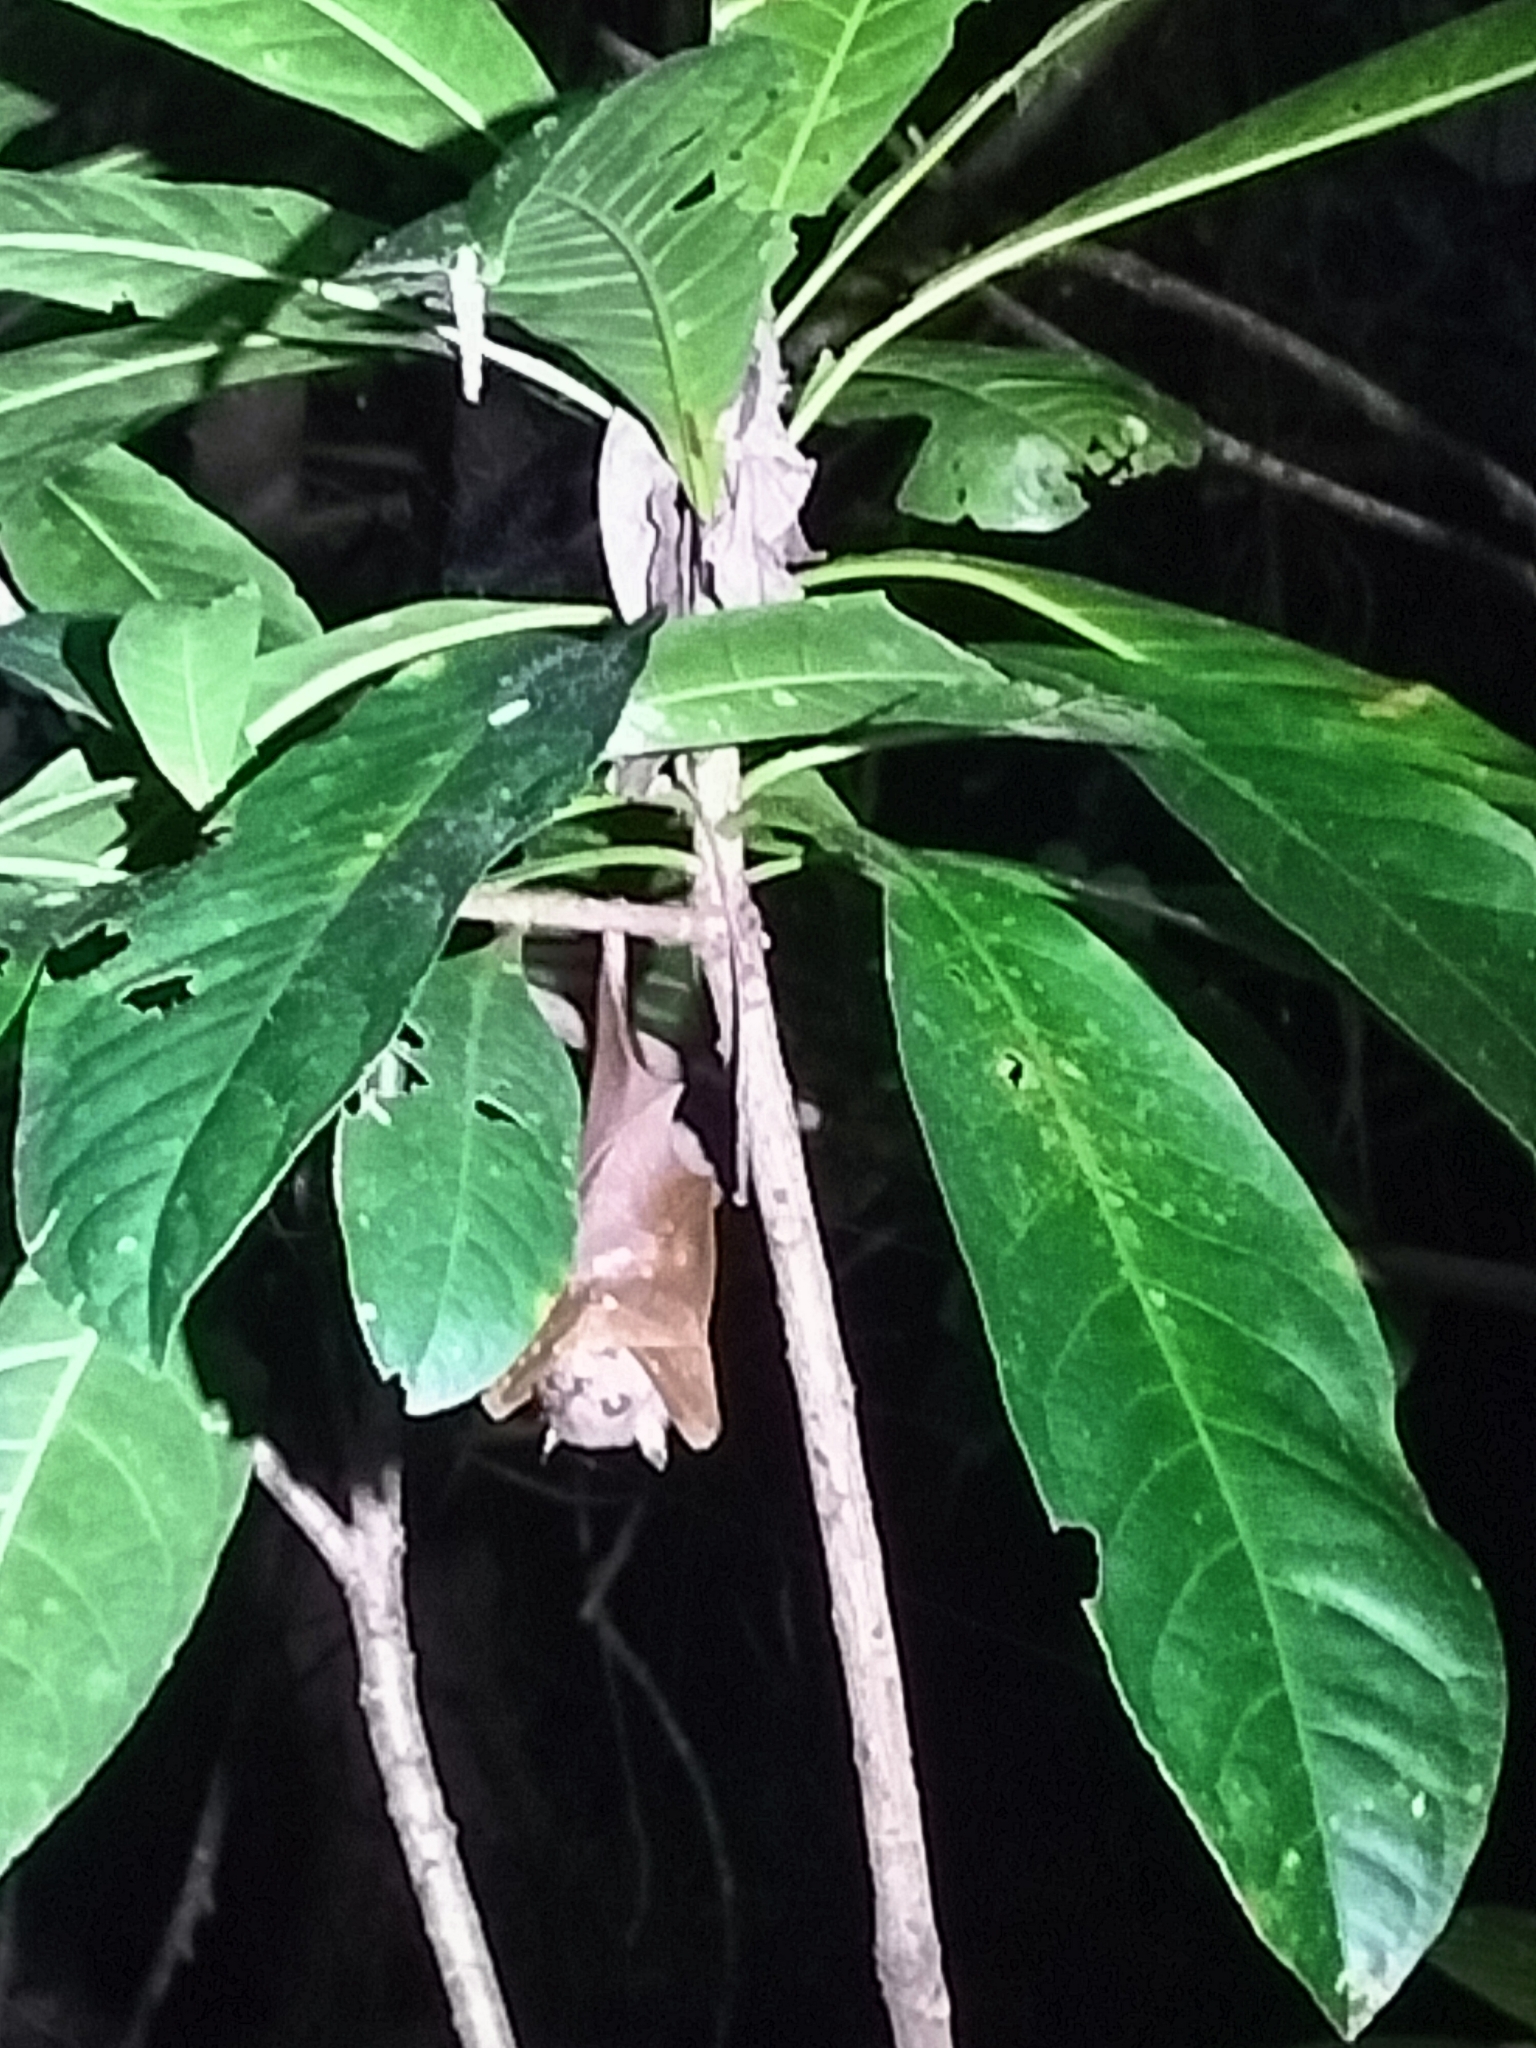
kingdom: Animalia
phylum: Chordata
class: Mammalia
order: Chiroptera
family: Pteropodidae
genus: Nyctimene
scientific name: Nyctimene robinsoni
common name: Queensland tube-nosed fruit bat
